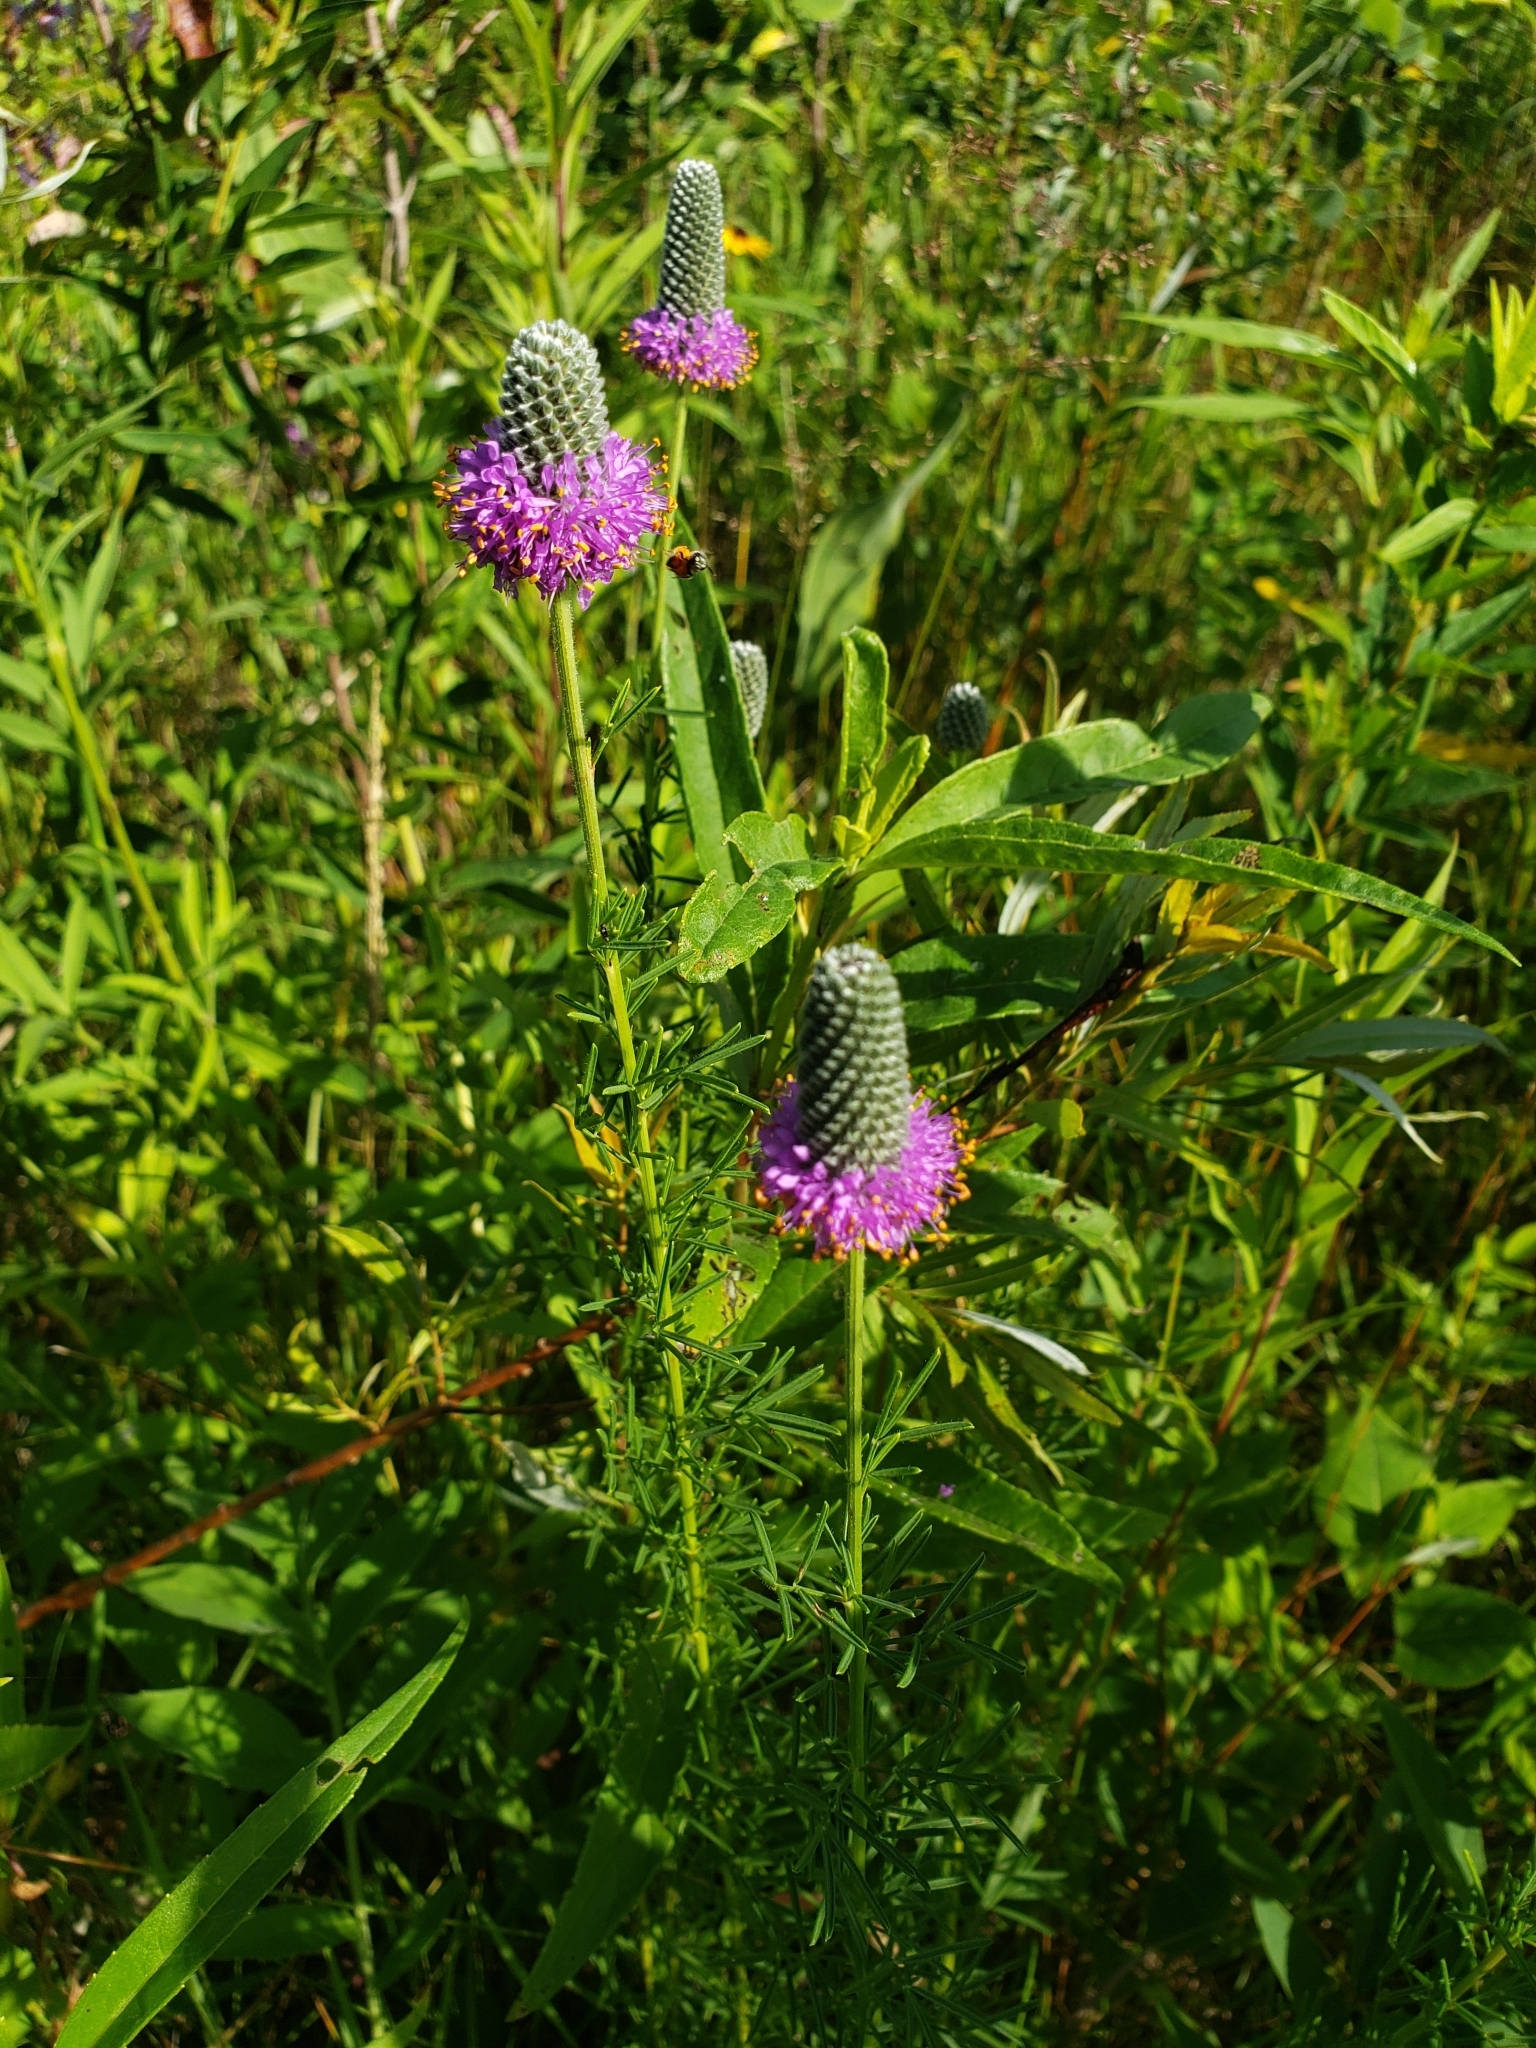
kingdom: Plantae
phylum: Tracheophyta
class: Magnoliopsida
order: Fabales
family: Fabaceae
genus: Dalea
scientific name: Dalea purpurea
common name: Purple prairie-clover
